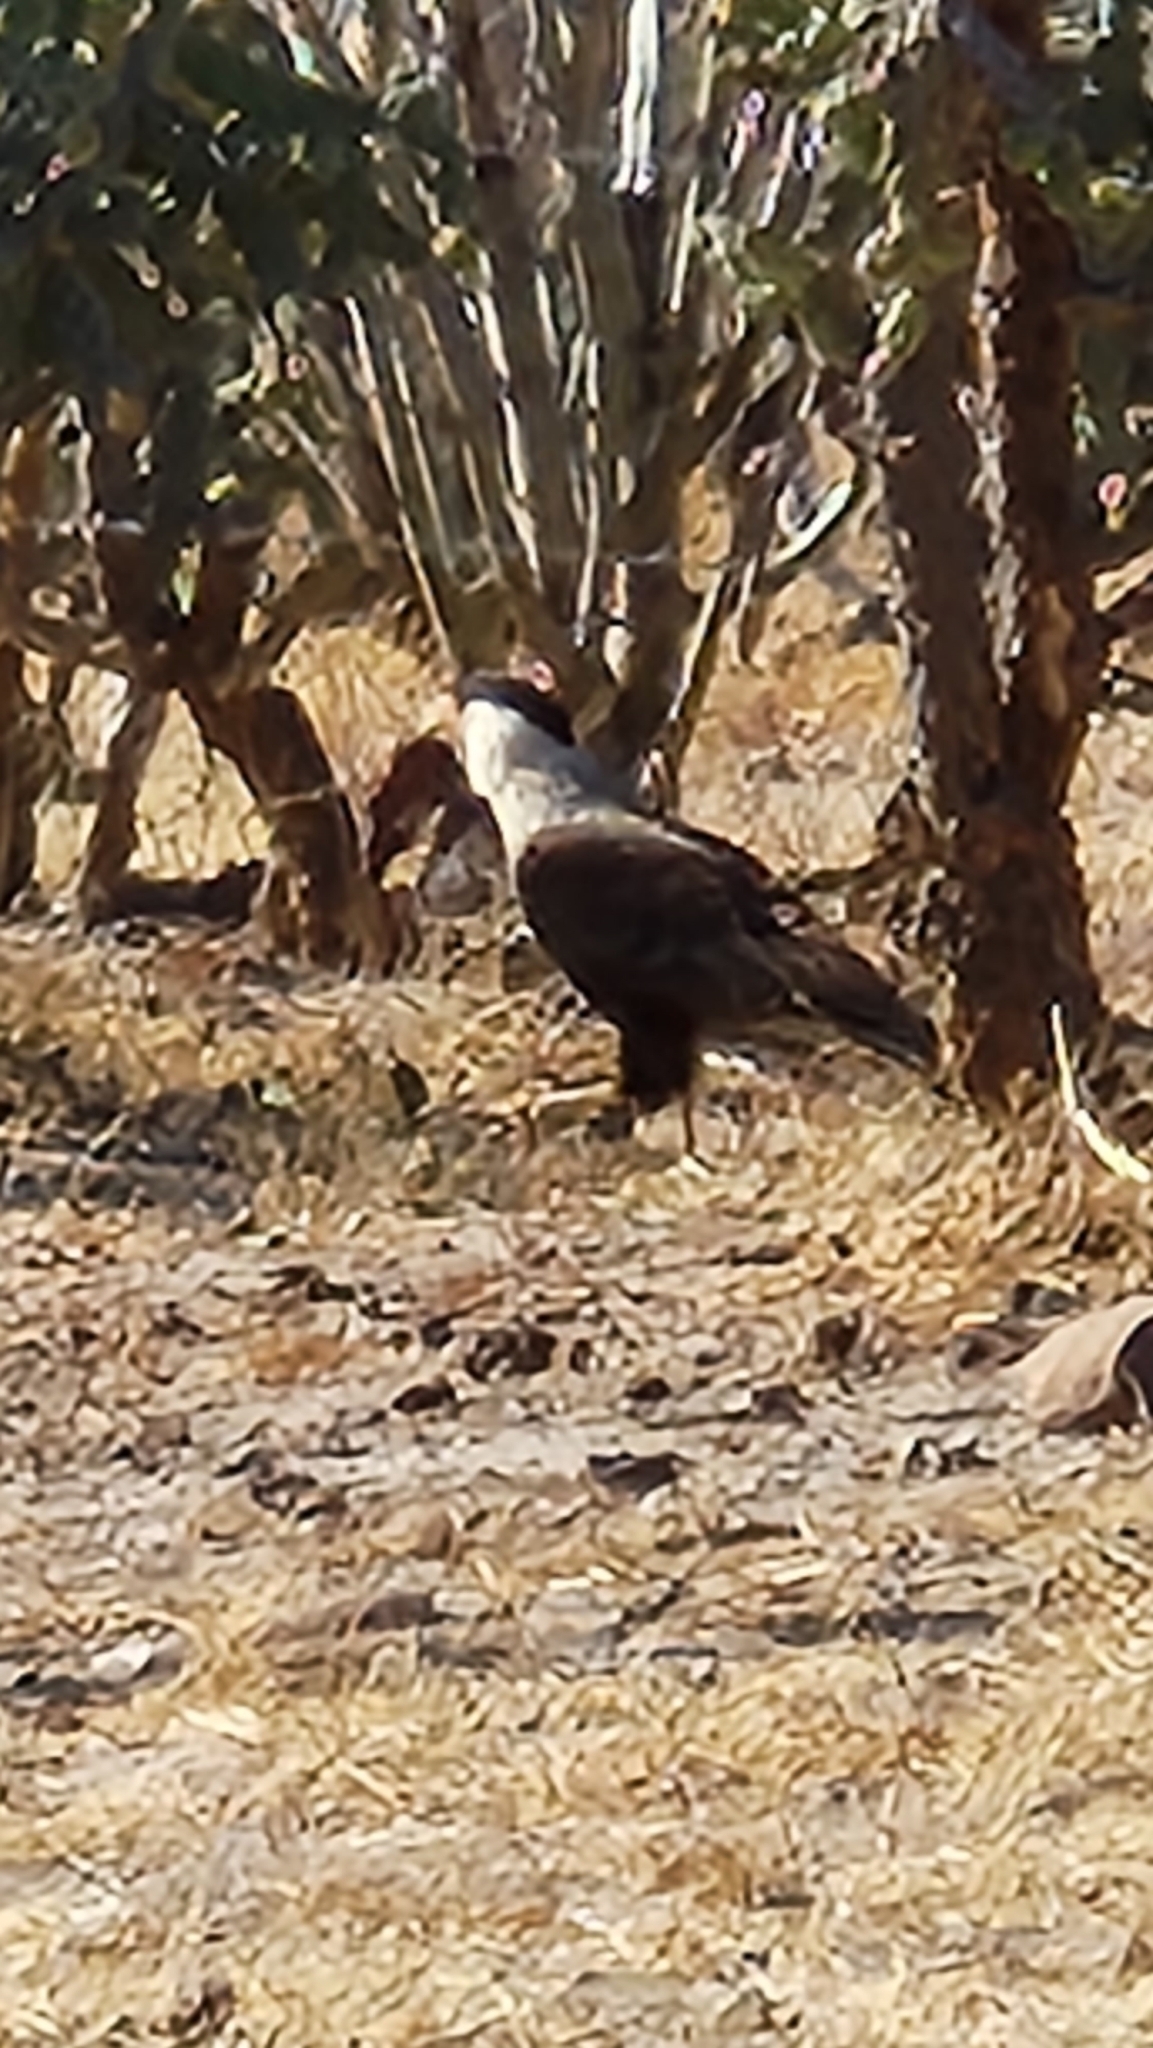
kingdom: Animalia
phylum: Chordata
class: Aves
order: Falconiformes
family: Falconidae
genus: Caracara
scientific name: Caracara plancus
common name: Southern caracara
